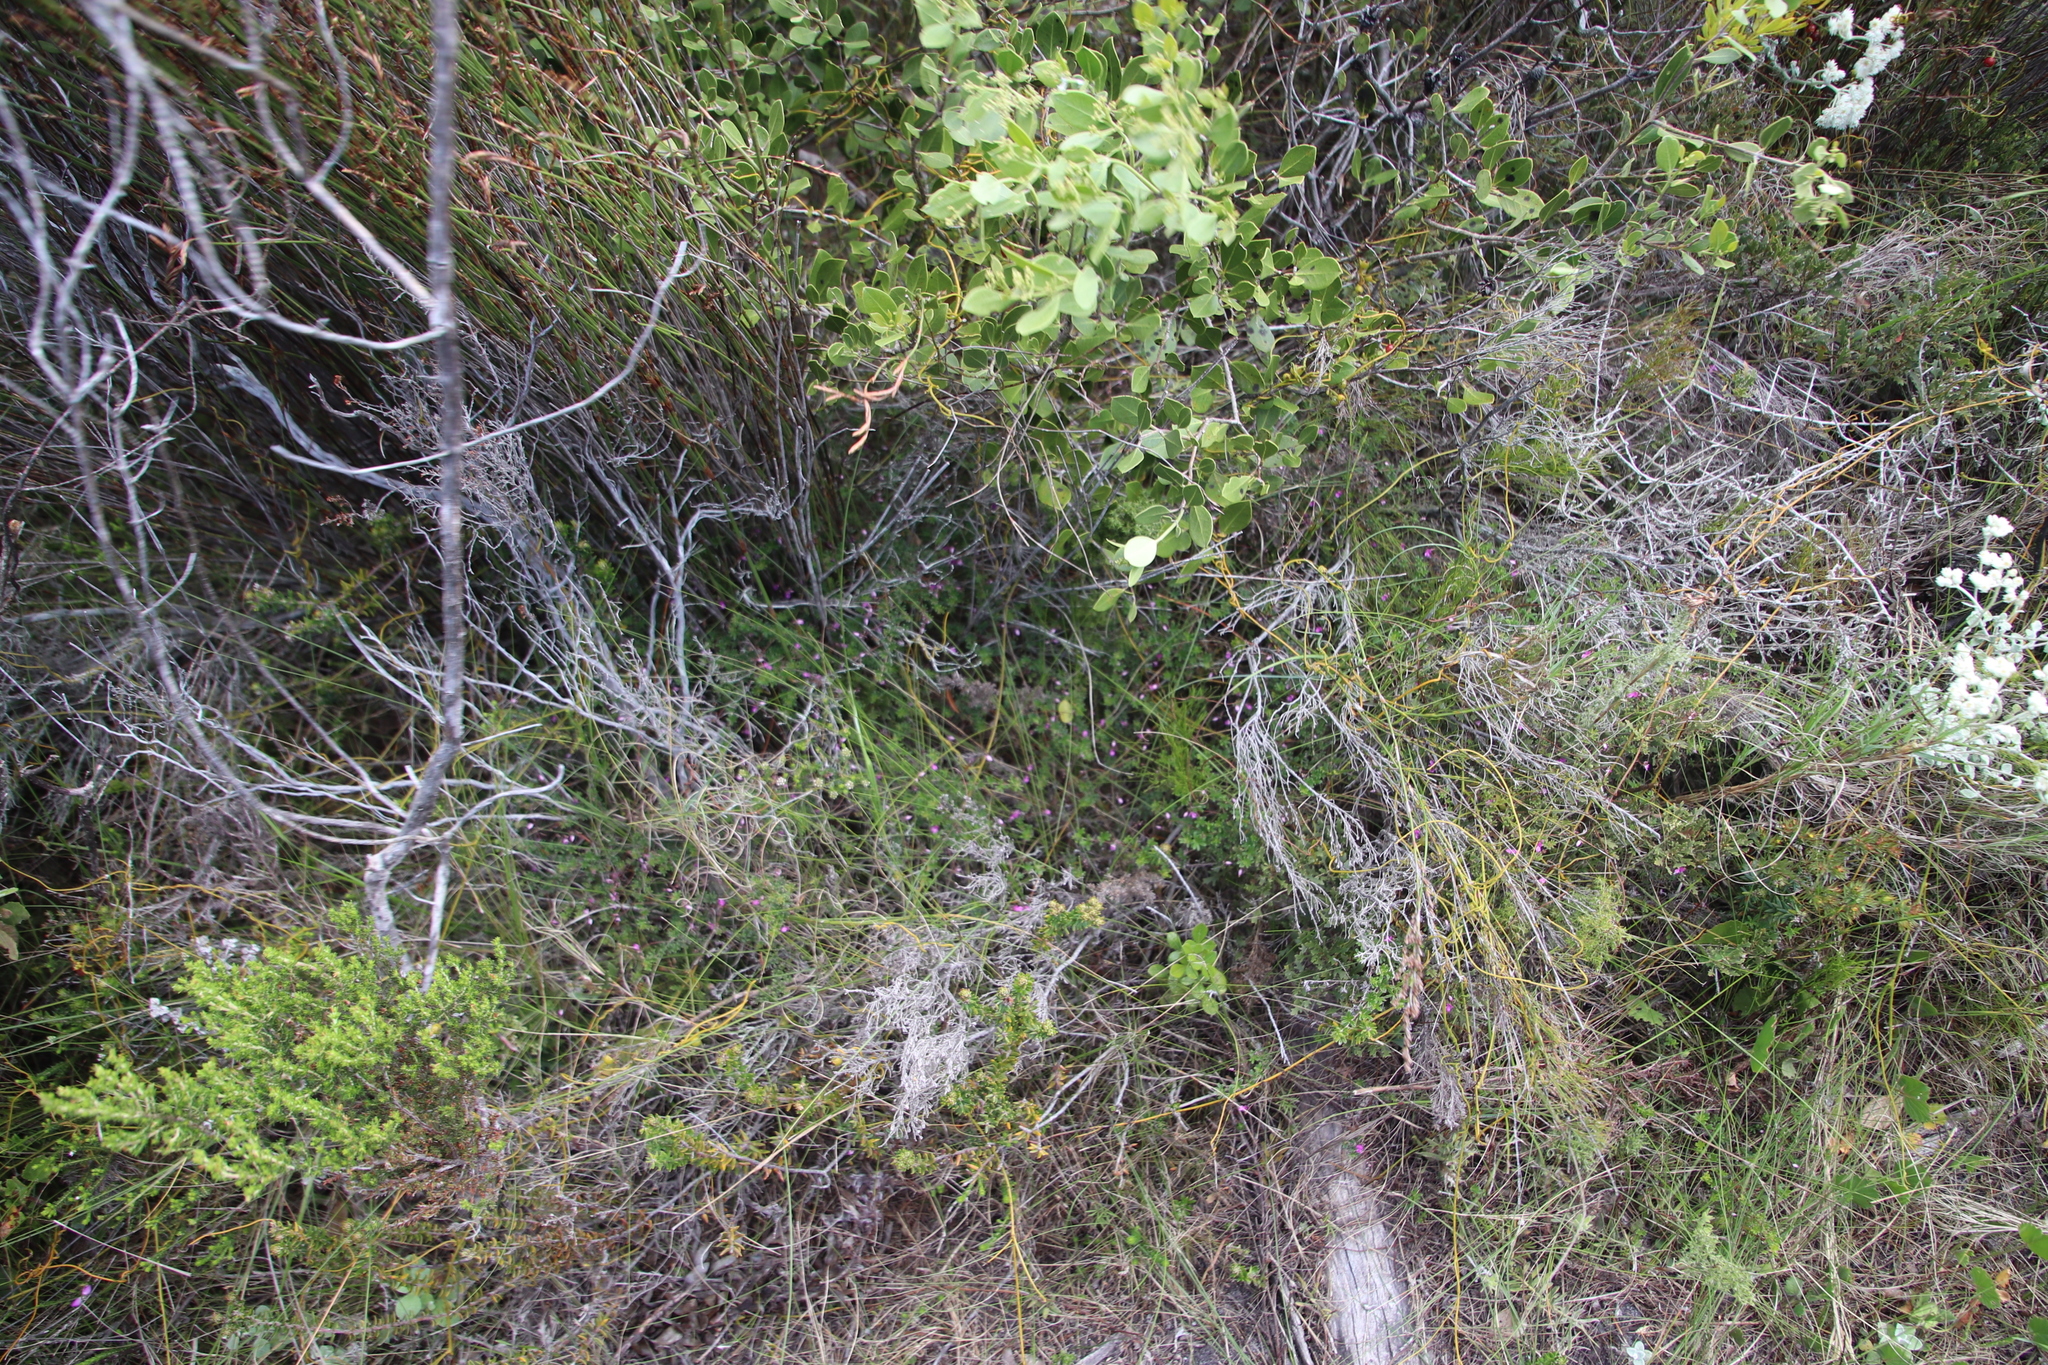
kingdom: Plantae
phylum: Tracheophyta
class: Magnoliopsida
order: Fabales
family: Fabaceae
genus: Indigofera
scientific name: Indigofera angustifolia
